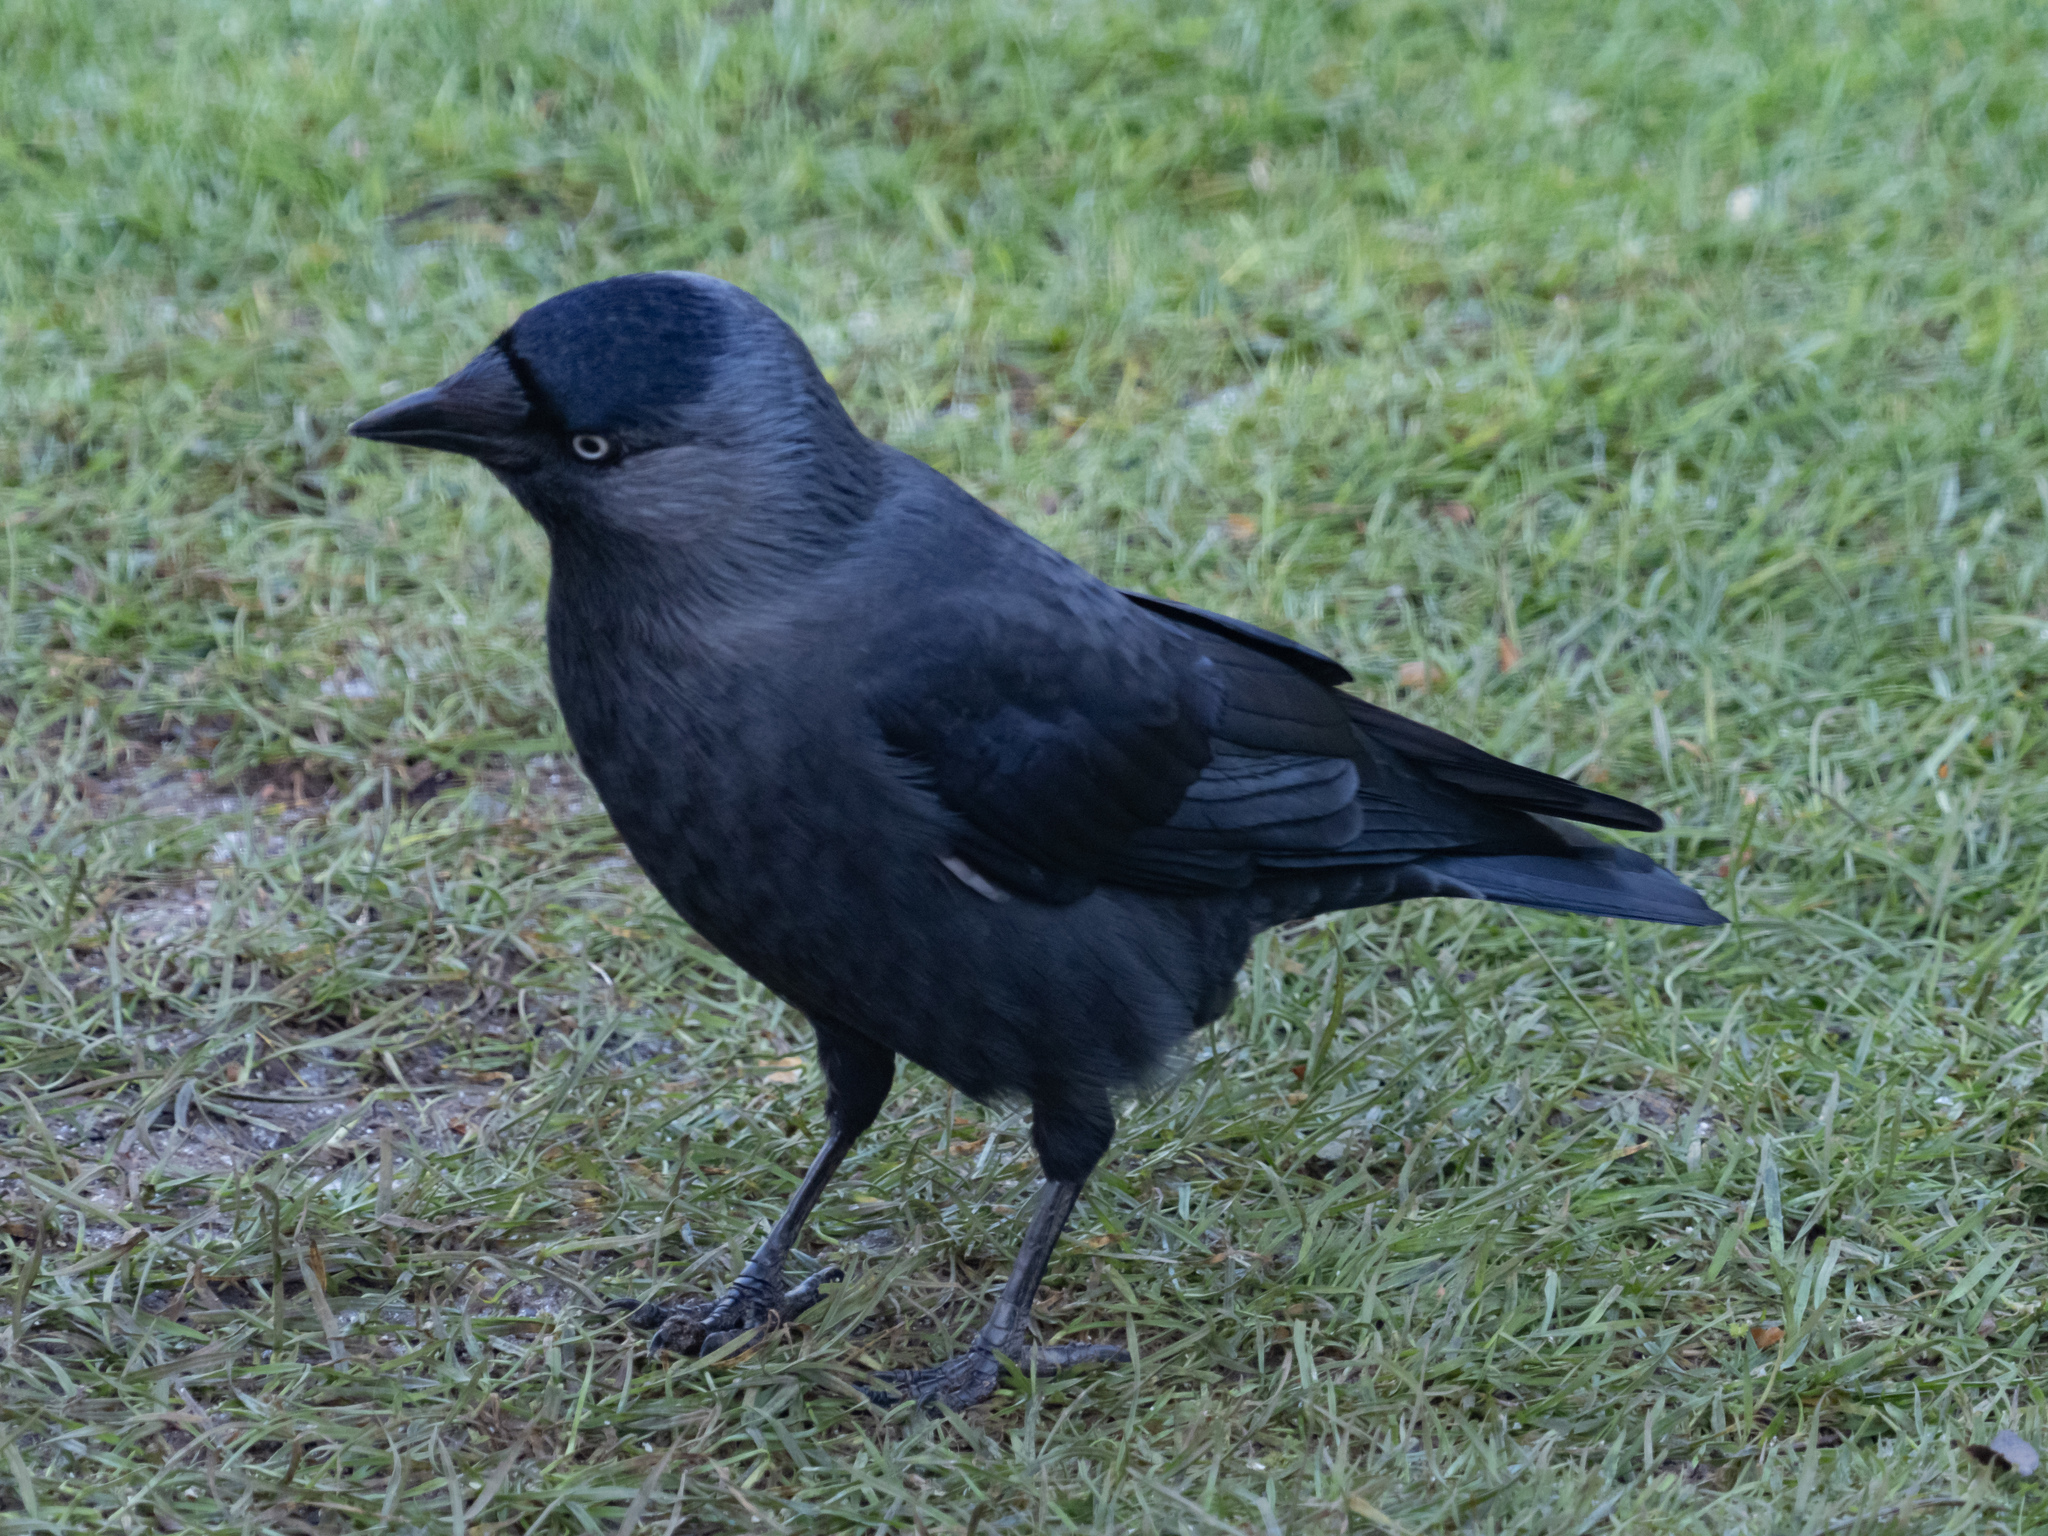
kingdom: Animalia
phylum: Chordata
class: Aves
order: Passeriformes
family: Corvidae
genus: Coloeus
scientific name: Coloeus monedula
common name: Western jackdaw
